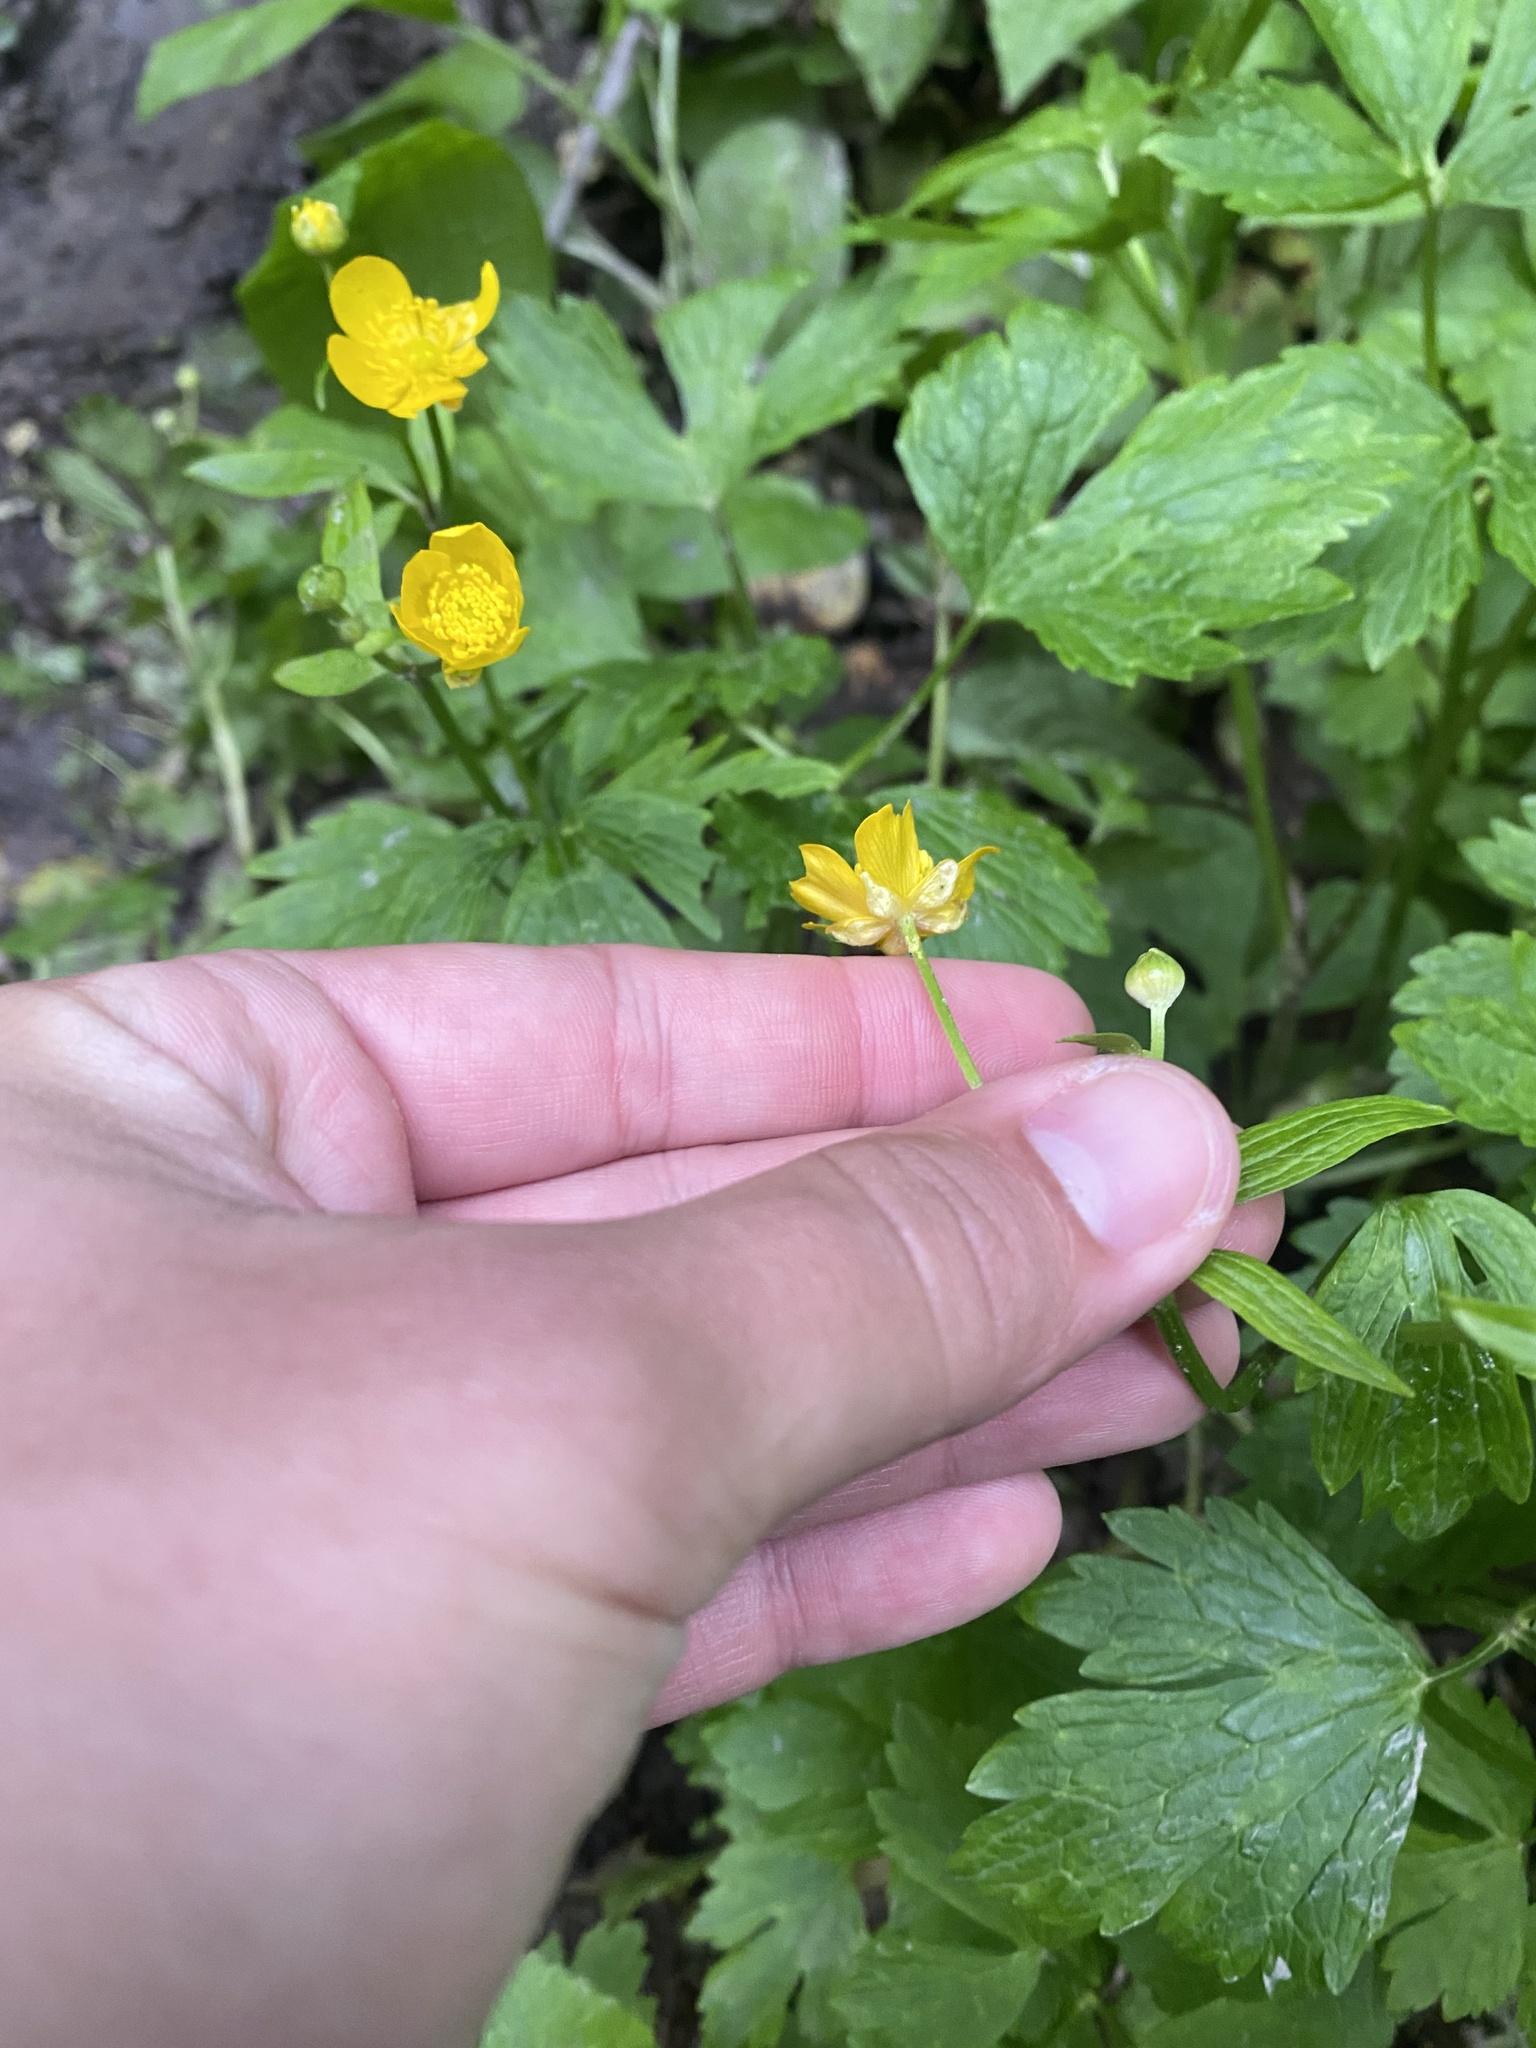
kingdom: Plantae
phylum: Tracheophyta
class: Magnoliopsida
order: Ranunculales
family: Ranunculaceae
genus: Ranunculus
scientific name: Ranunculus repens
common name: Creeping buttercup
